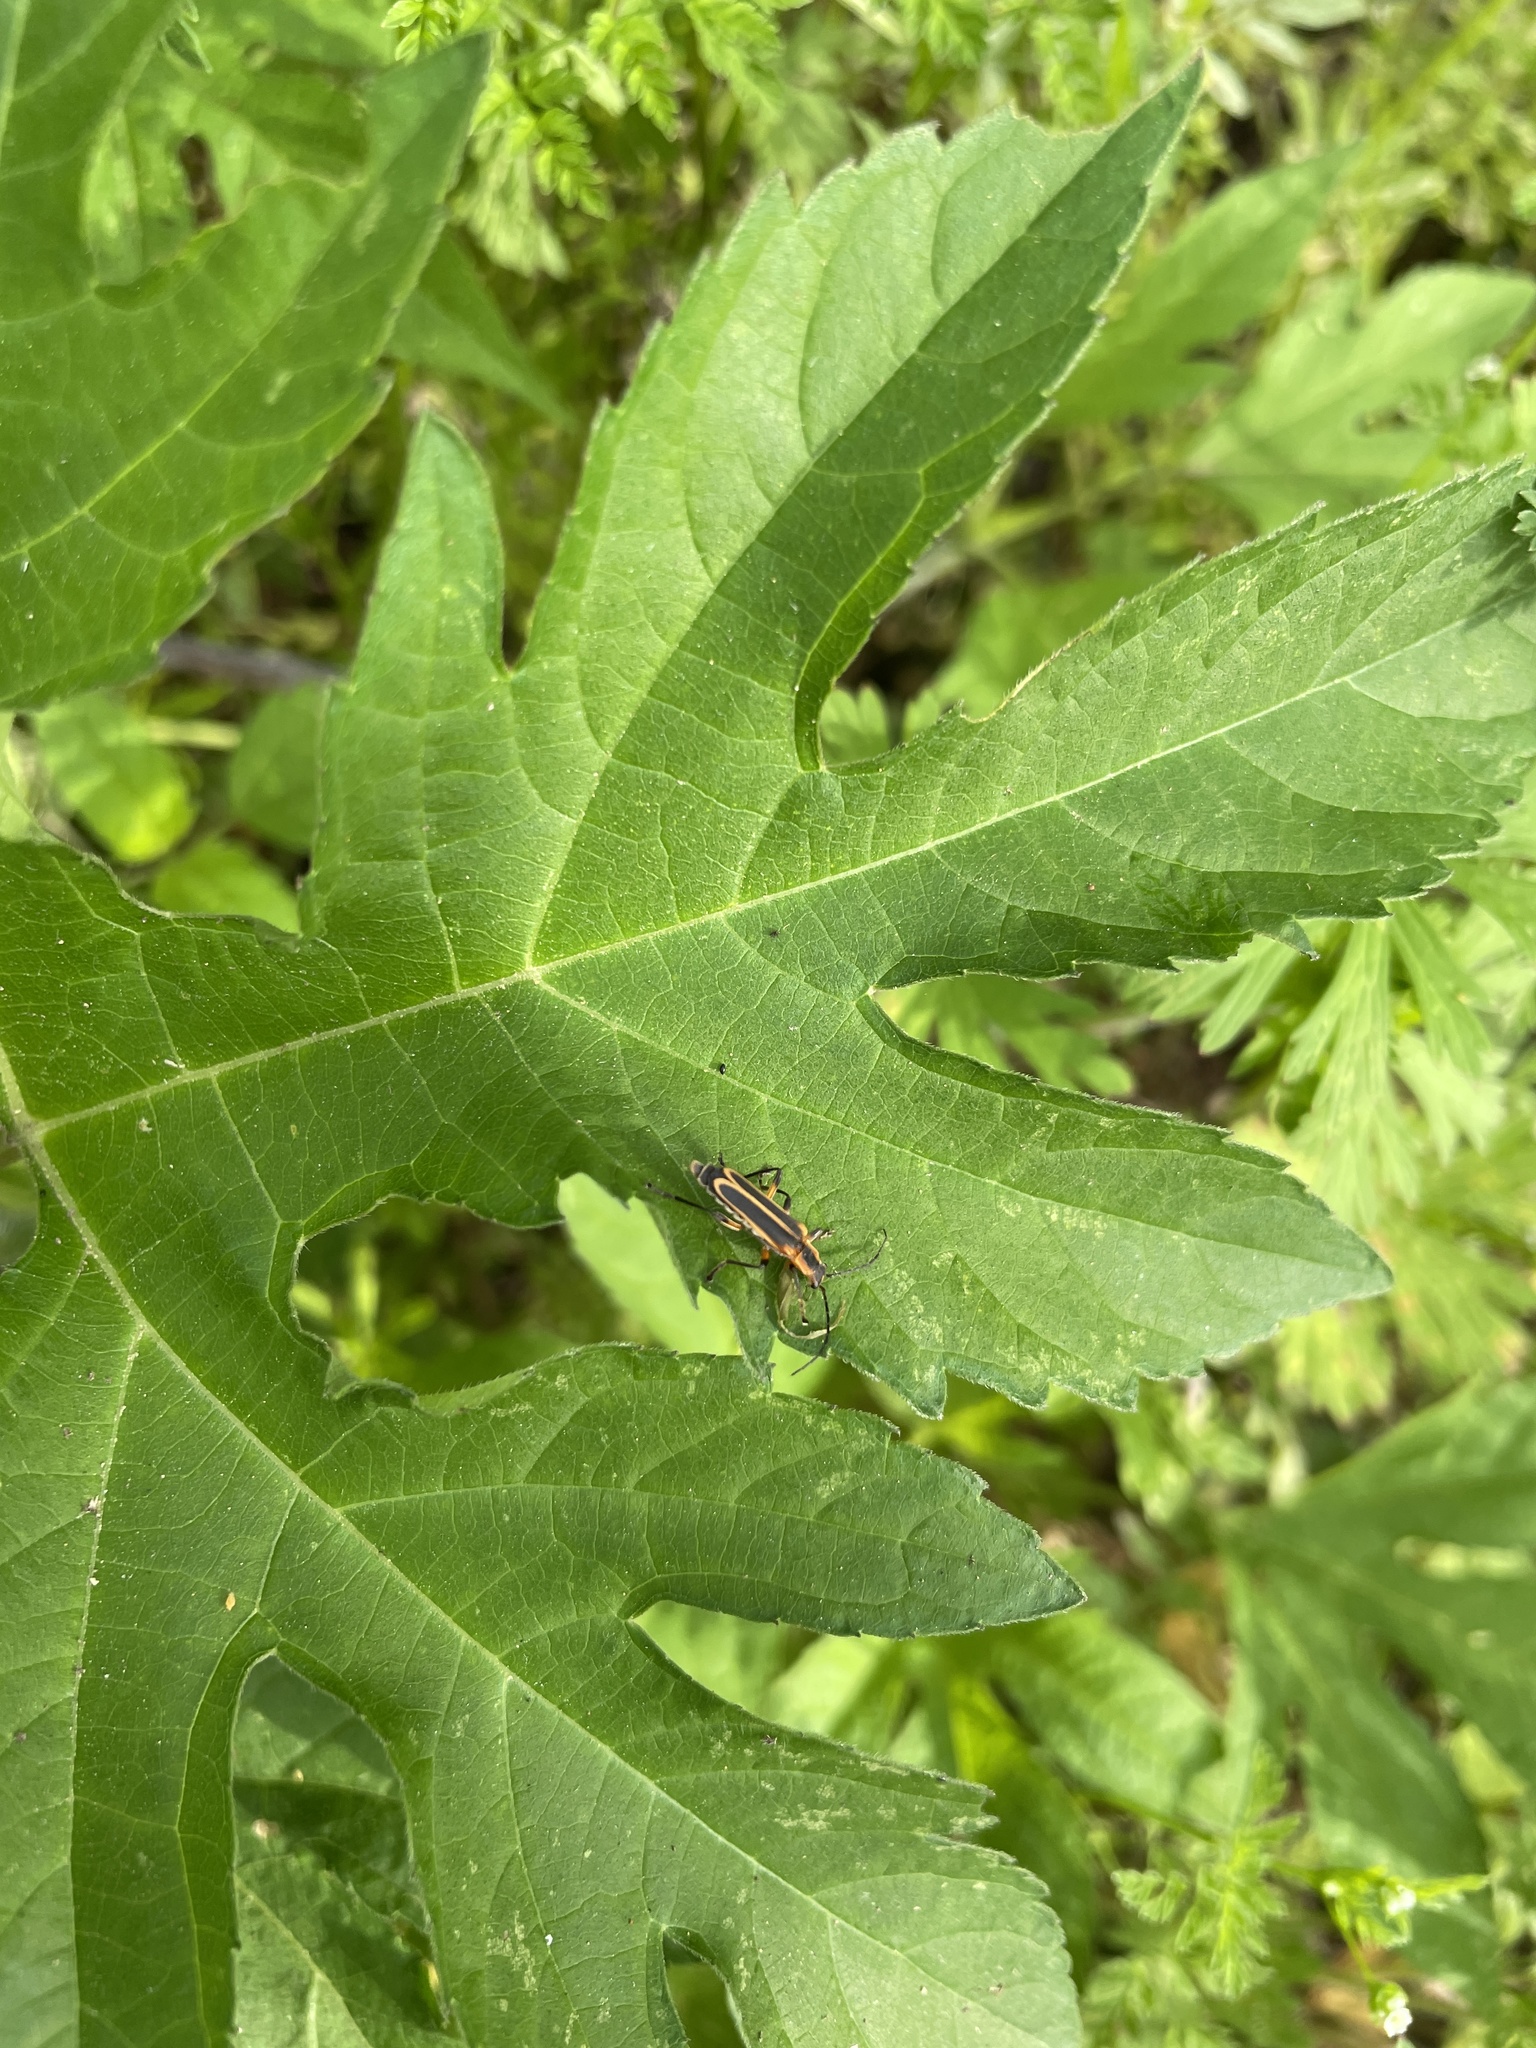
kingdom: Animalia
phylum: Arthropoda
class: Insecta
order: Coleoptera
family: Cantharidae
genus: Chauliognathus
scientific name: Chauliognathus marginatus
